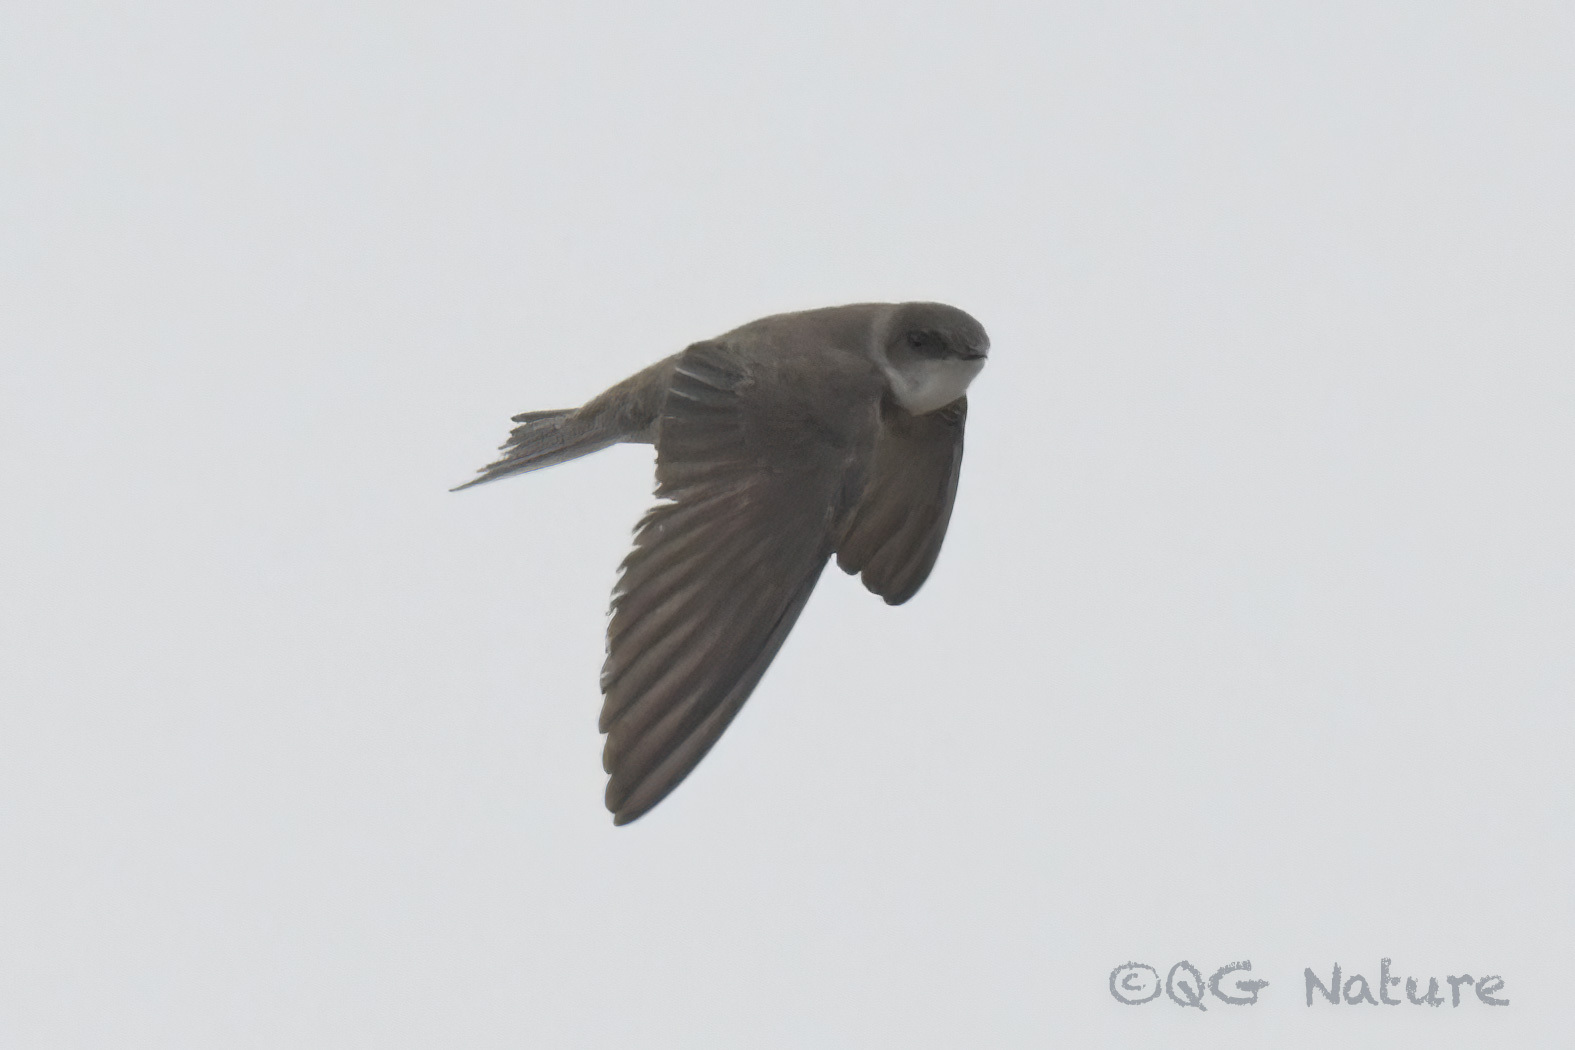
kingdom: Animalia
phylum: Chordata
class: Aves
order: Passeriformes
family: Hirundinidae
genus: Riparia
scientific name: Riparia riparia
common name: Sand martin
